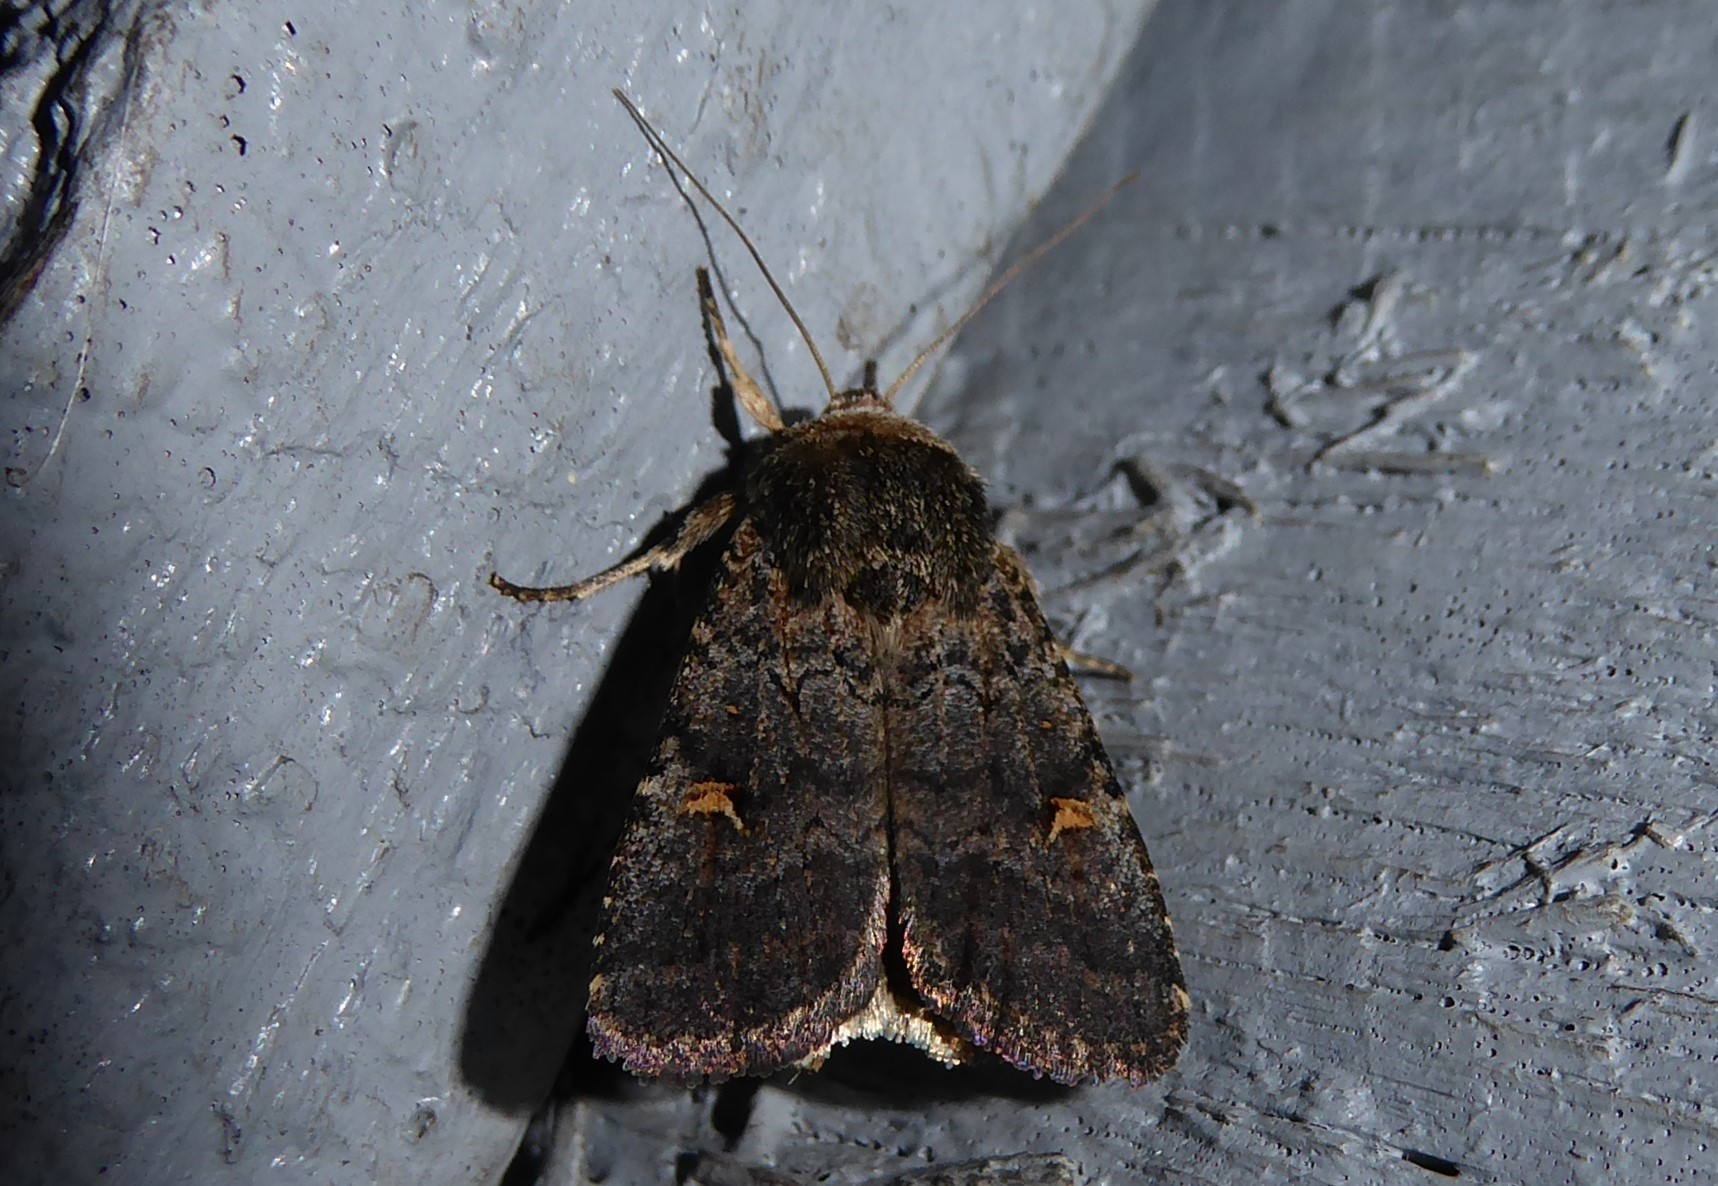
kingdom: Animalia
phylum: Arthropoda
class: Insecta
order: Lepidoptera
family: Noctuidae
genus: Proteuxoa
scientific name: Proteuxoa tetronycha
